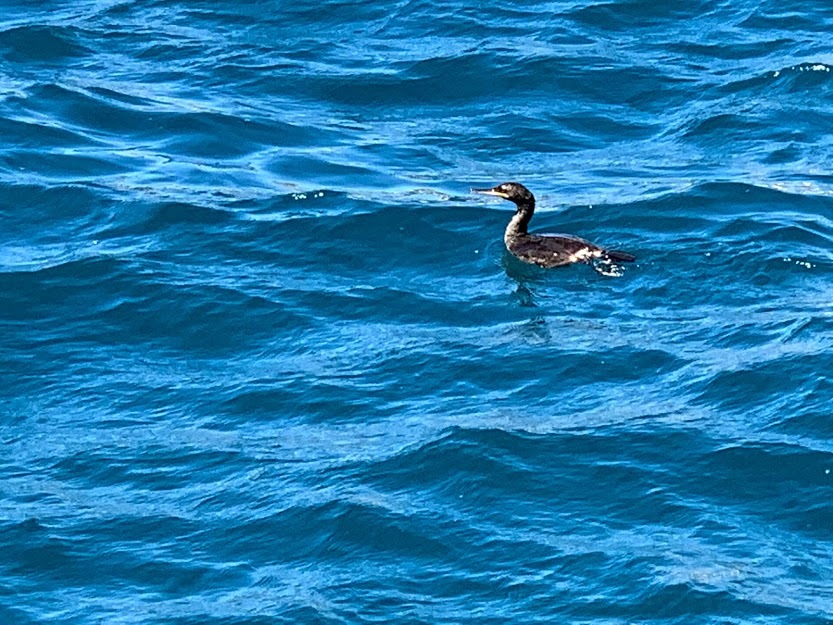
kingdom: Animalia
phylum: Chordata
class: Aves
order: Suliformes
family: Phalacrocoracidae
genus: Phalacrocorax
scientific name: Phalacrocorax aristotelis
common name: European shag
